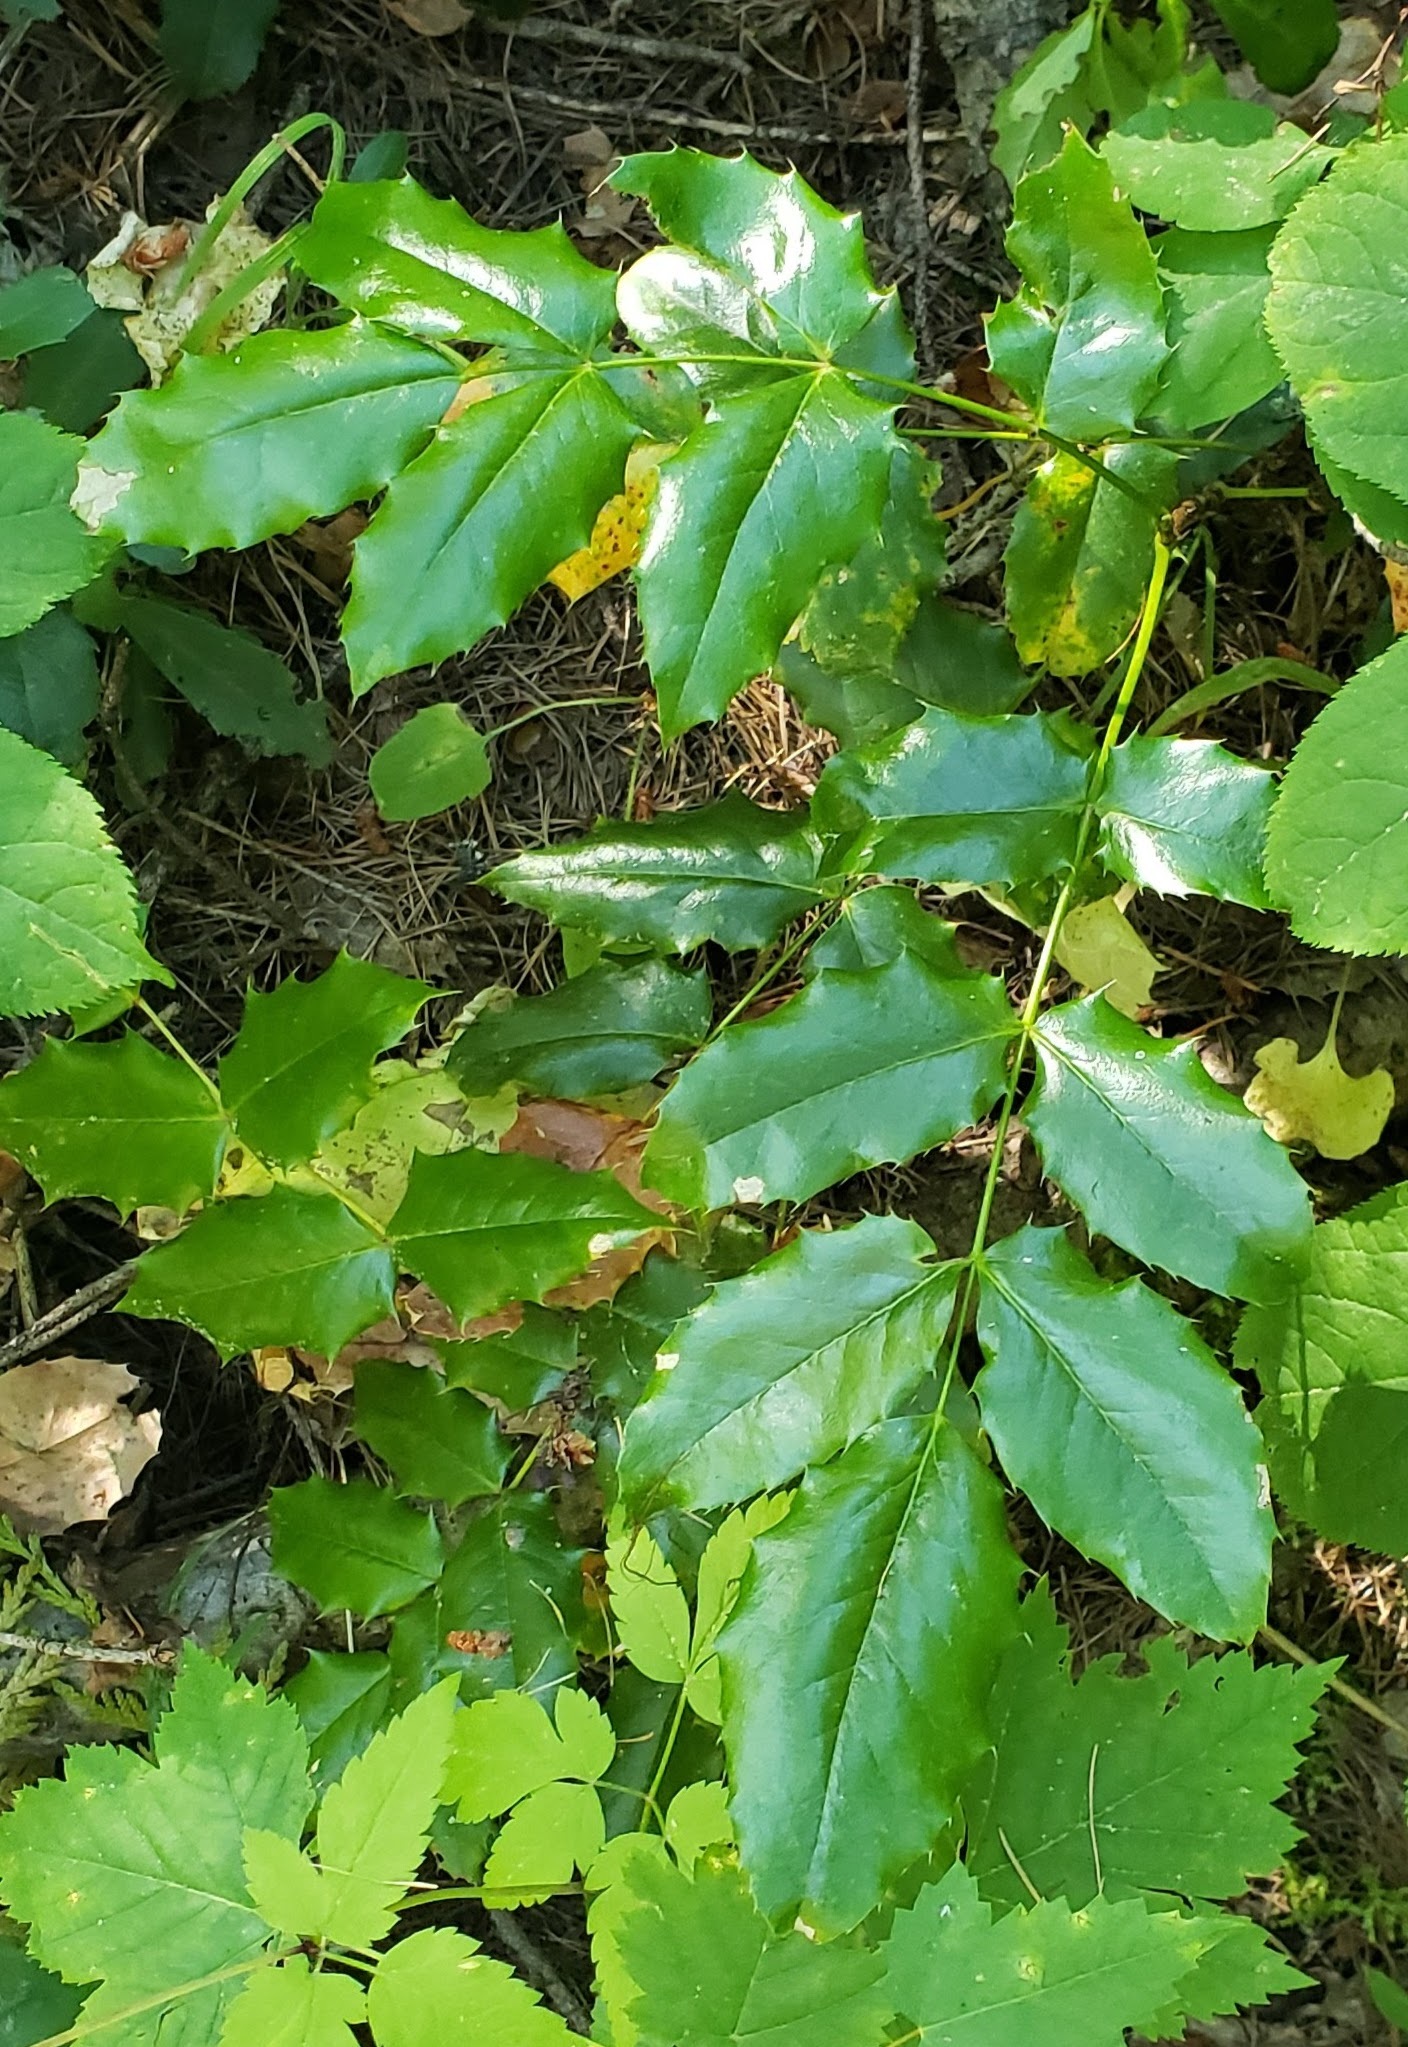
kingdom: Plantae
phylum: Tracheophyta
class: Magnoliopsida
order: Ranunculales
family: Berberidaceae
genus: Mahonia
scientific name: Mahonia aquifolium
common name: Oregon-grape
